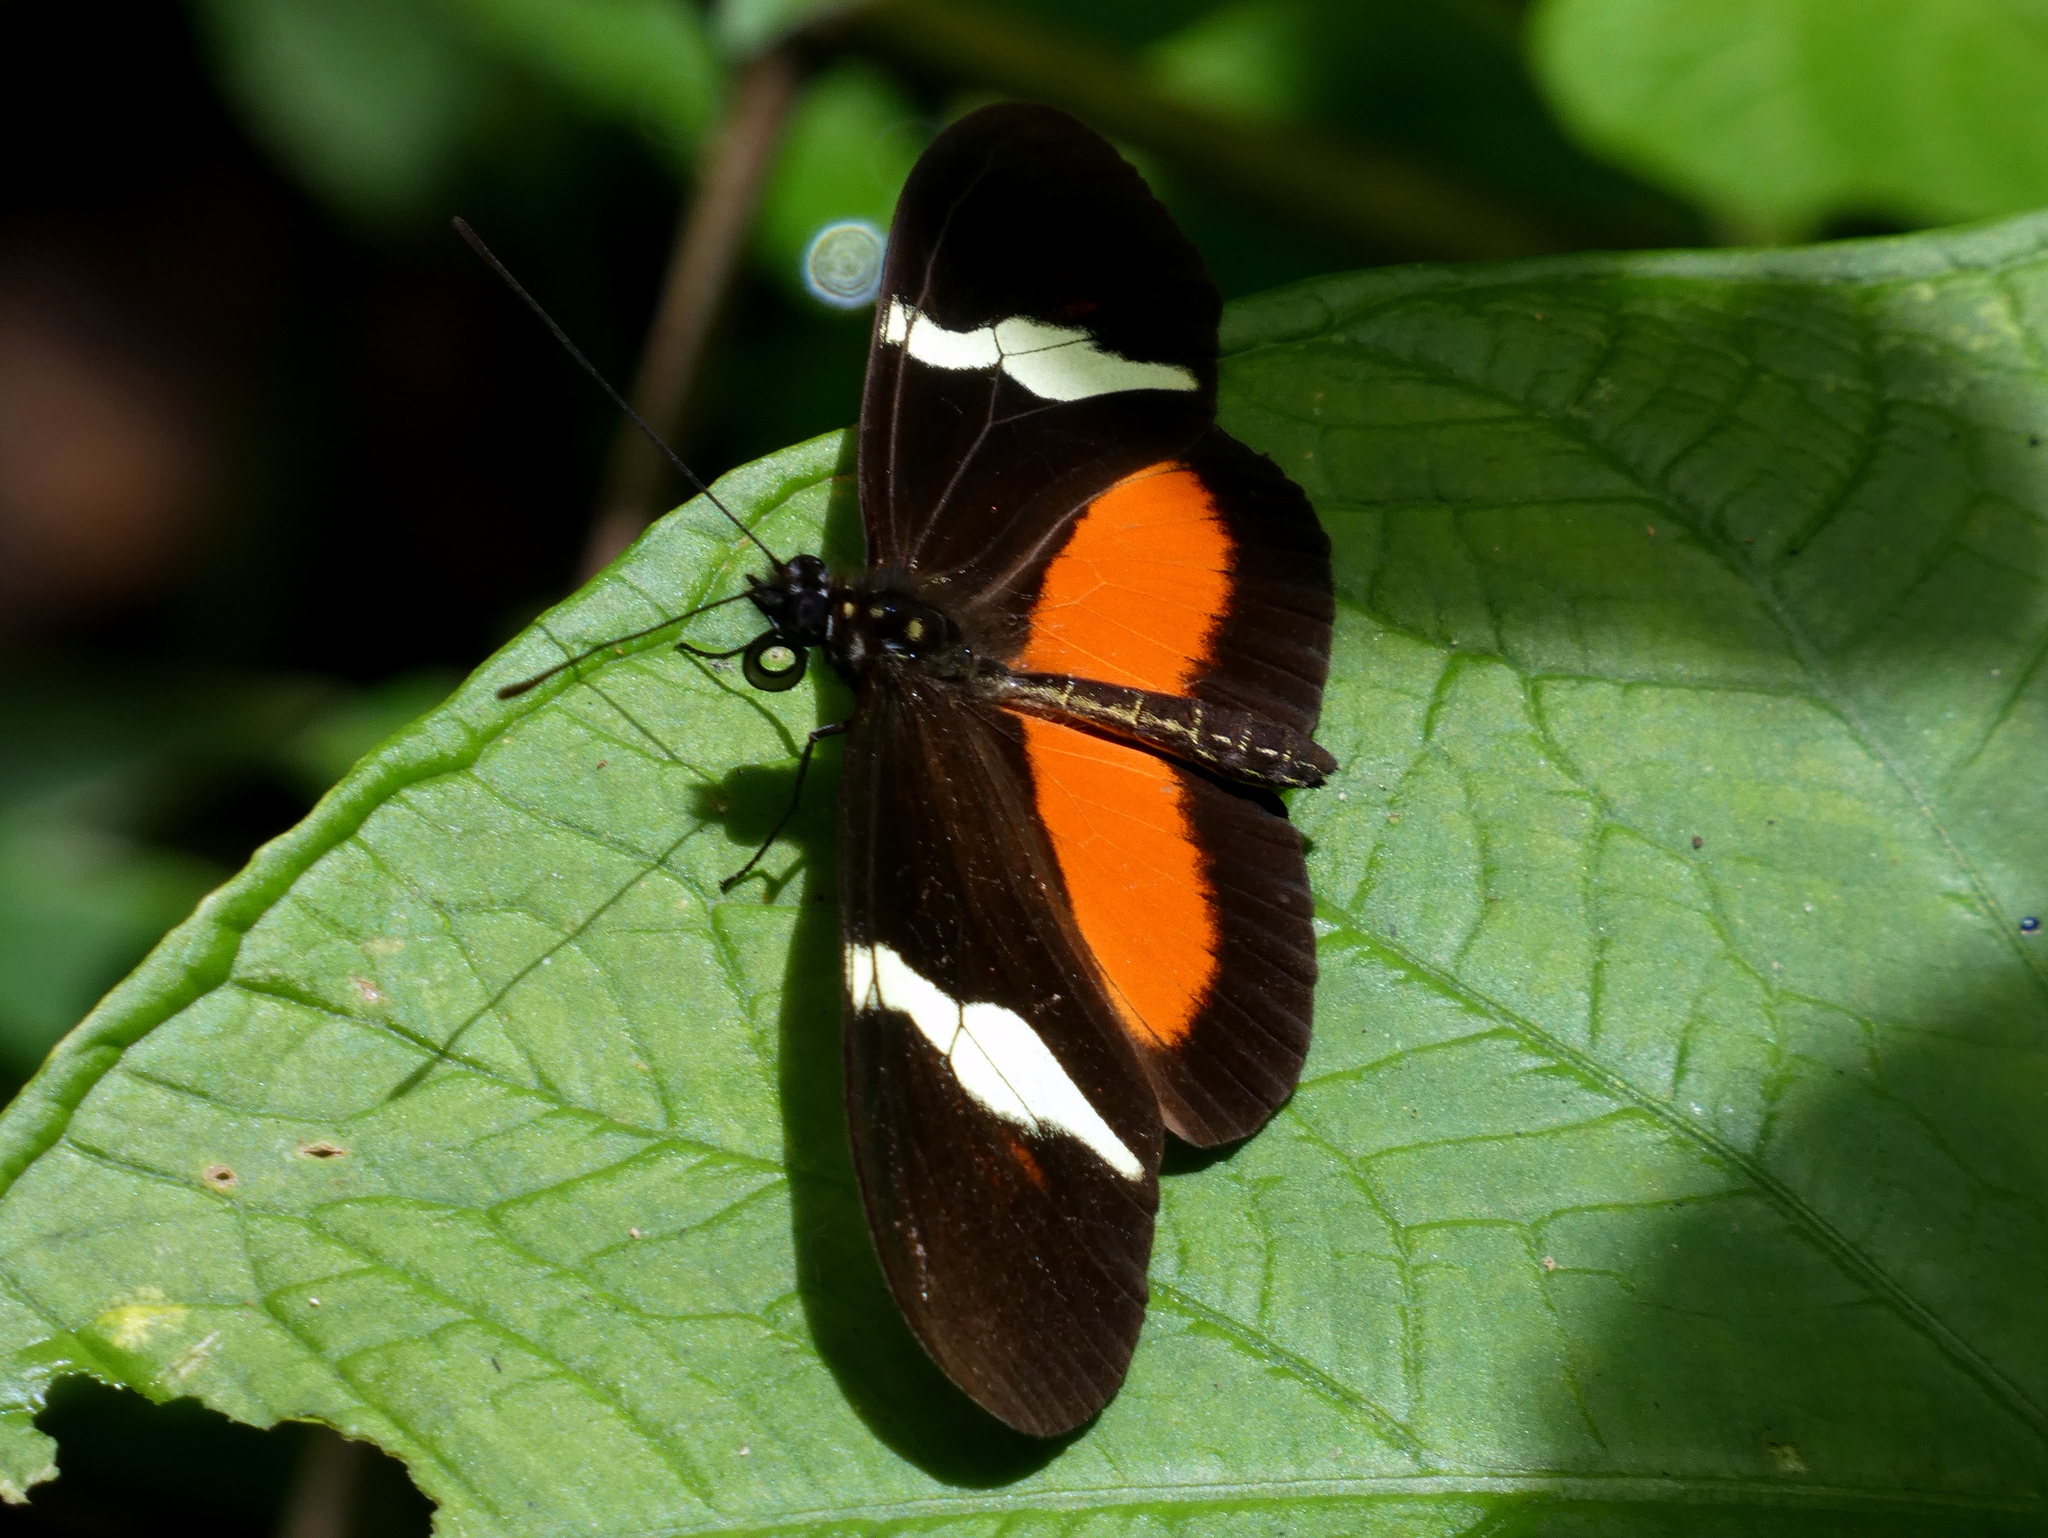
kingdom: Animalia
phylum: Arthropoda
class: Insecta
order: Lepidoptera
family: Nymphalidae
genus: Heliconius
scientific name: Heliconius clysonymus
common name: Clysonymus longwing
